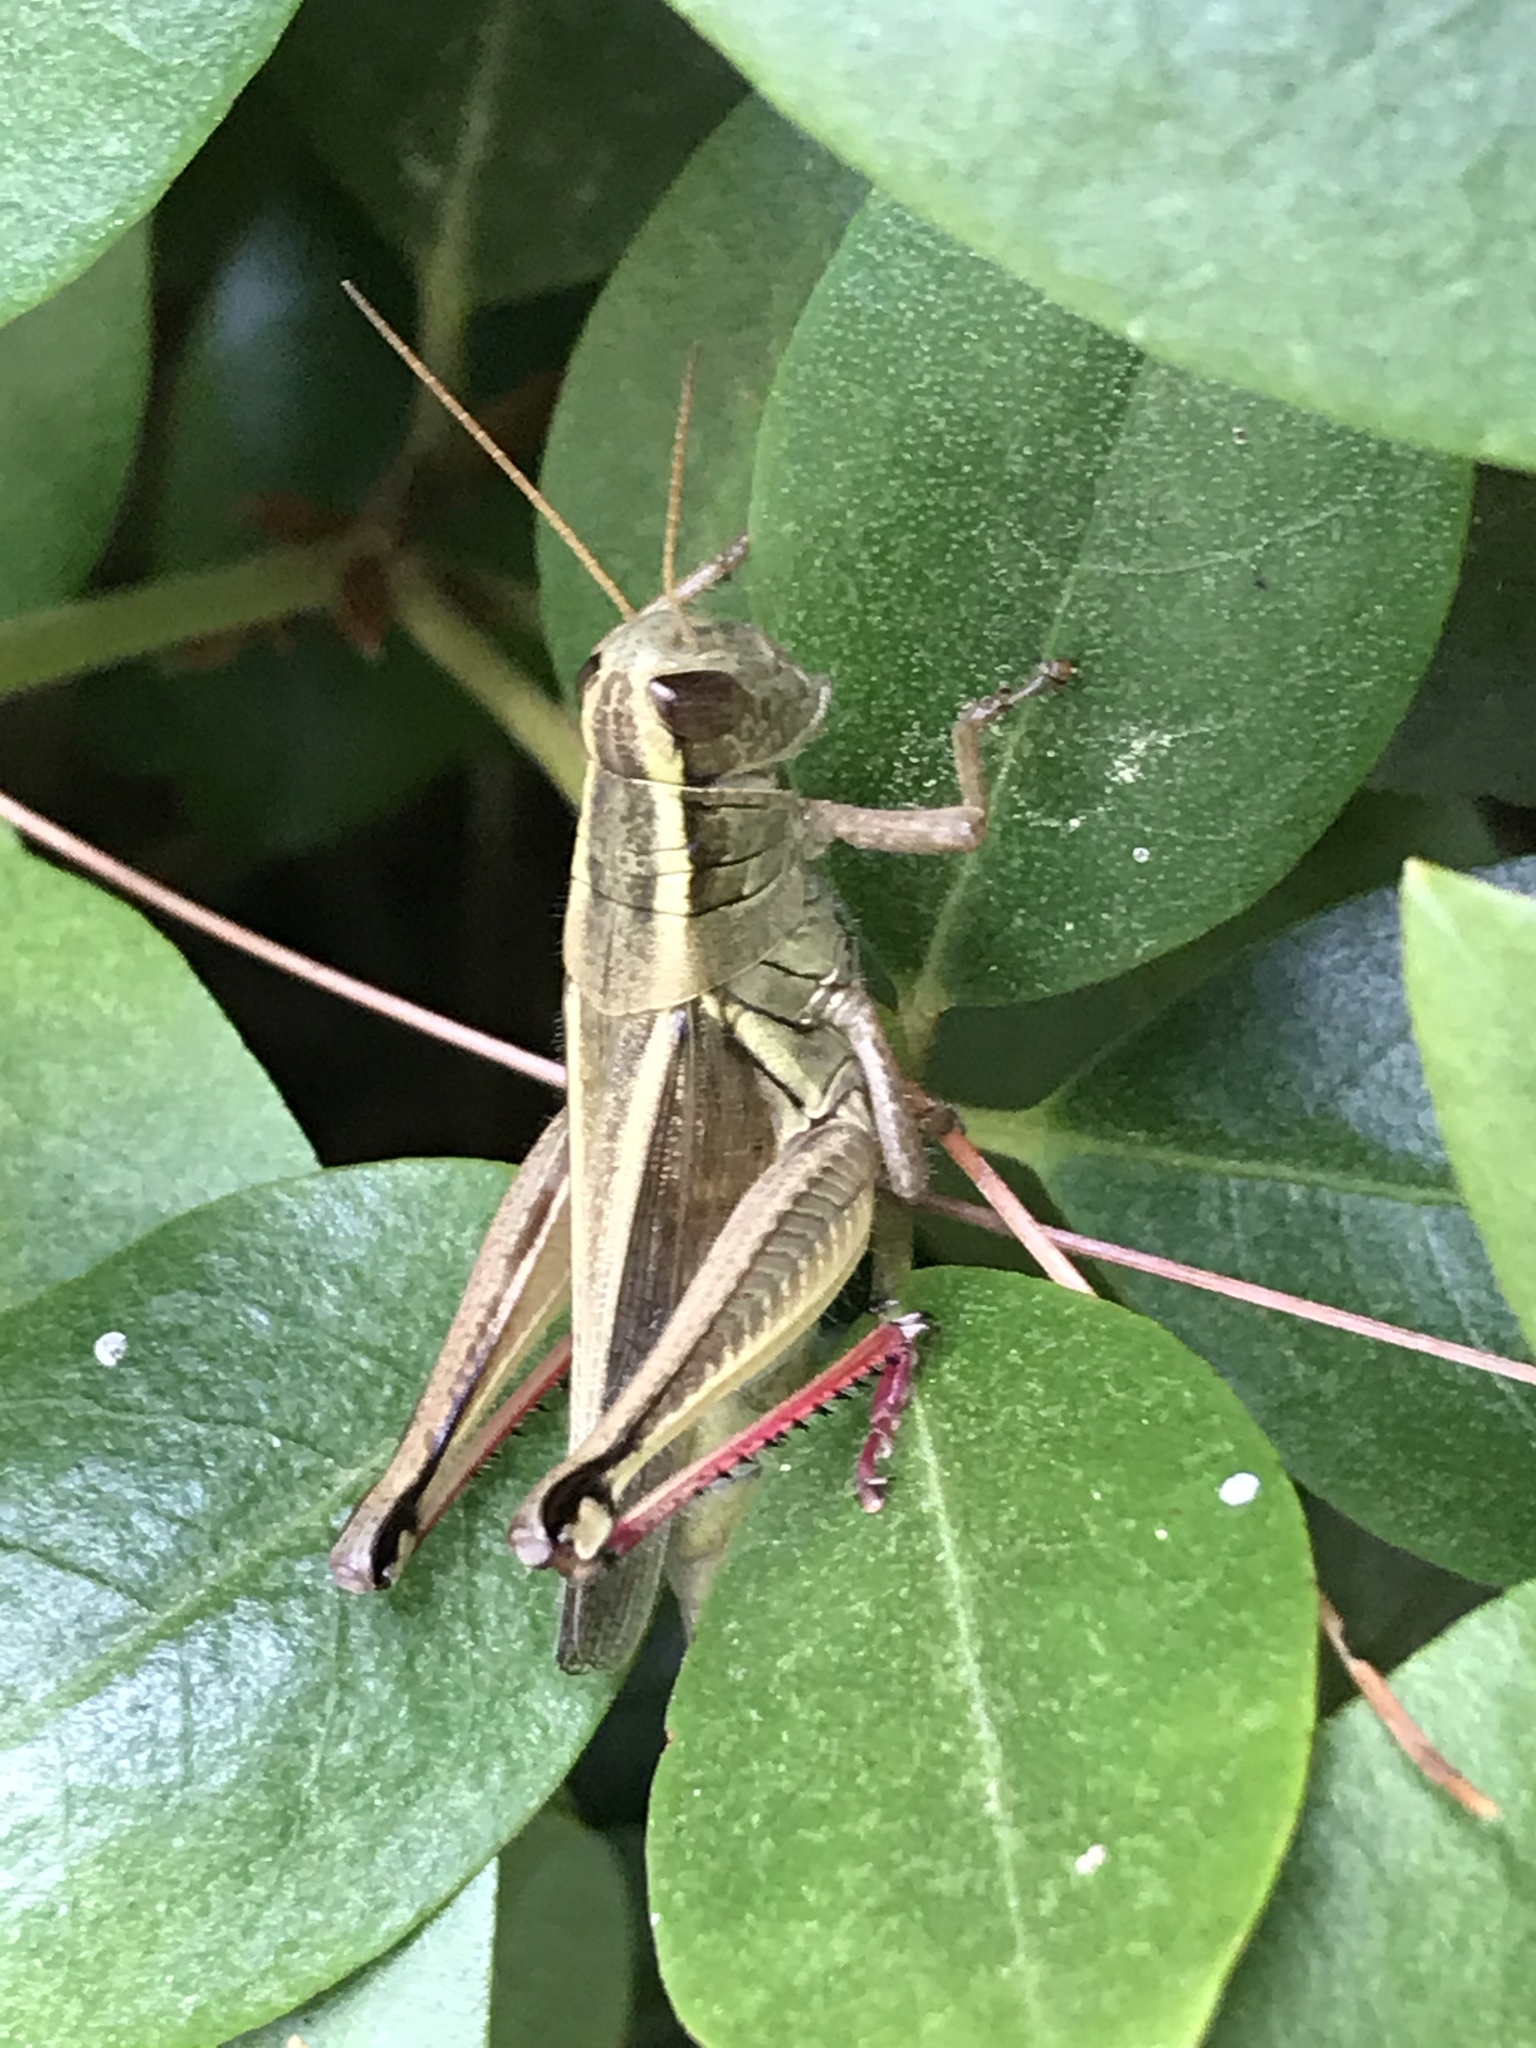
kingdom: Animalia
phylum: Arthropoda
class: Insecta
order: Orthoptera
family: Acrididae
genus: Melanoplus
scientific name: Melanoplus bivittatus
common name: Two-striped grasshopper
